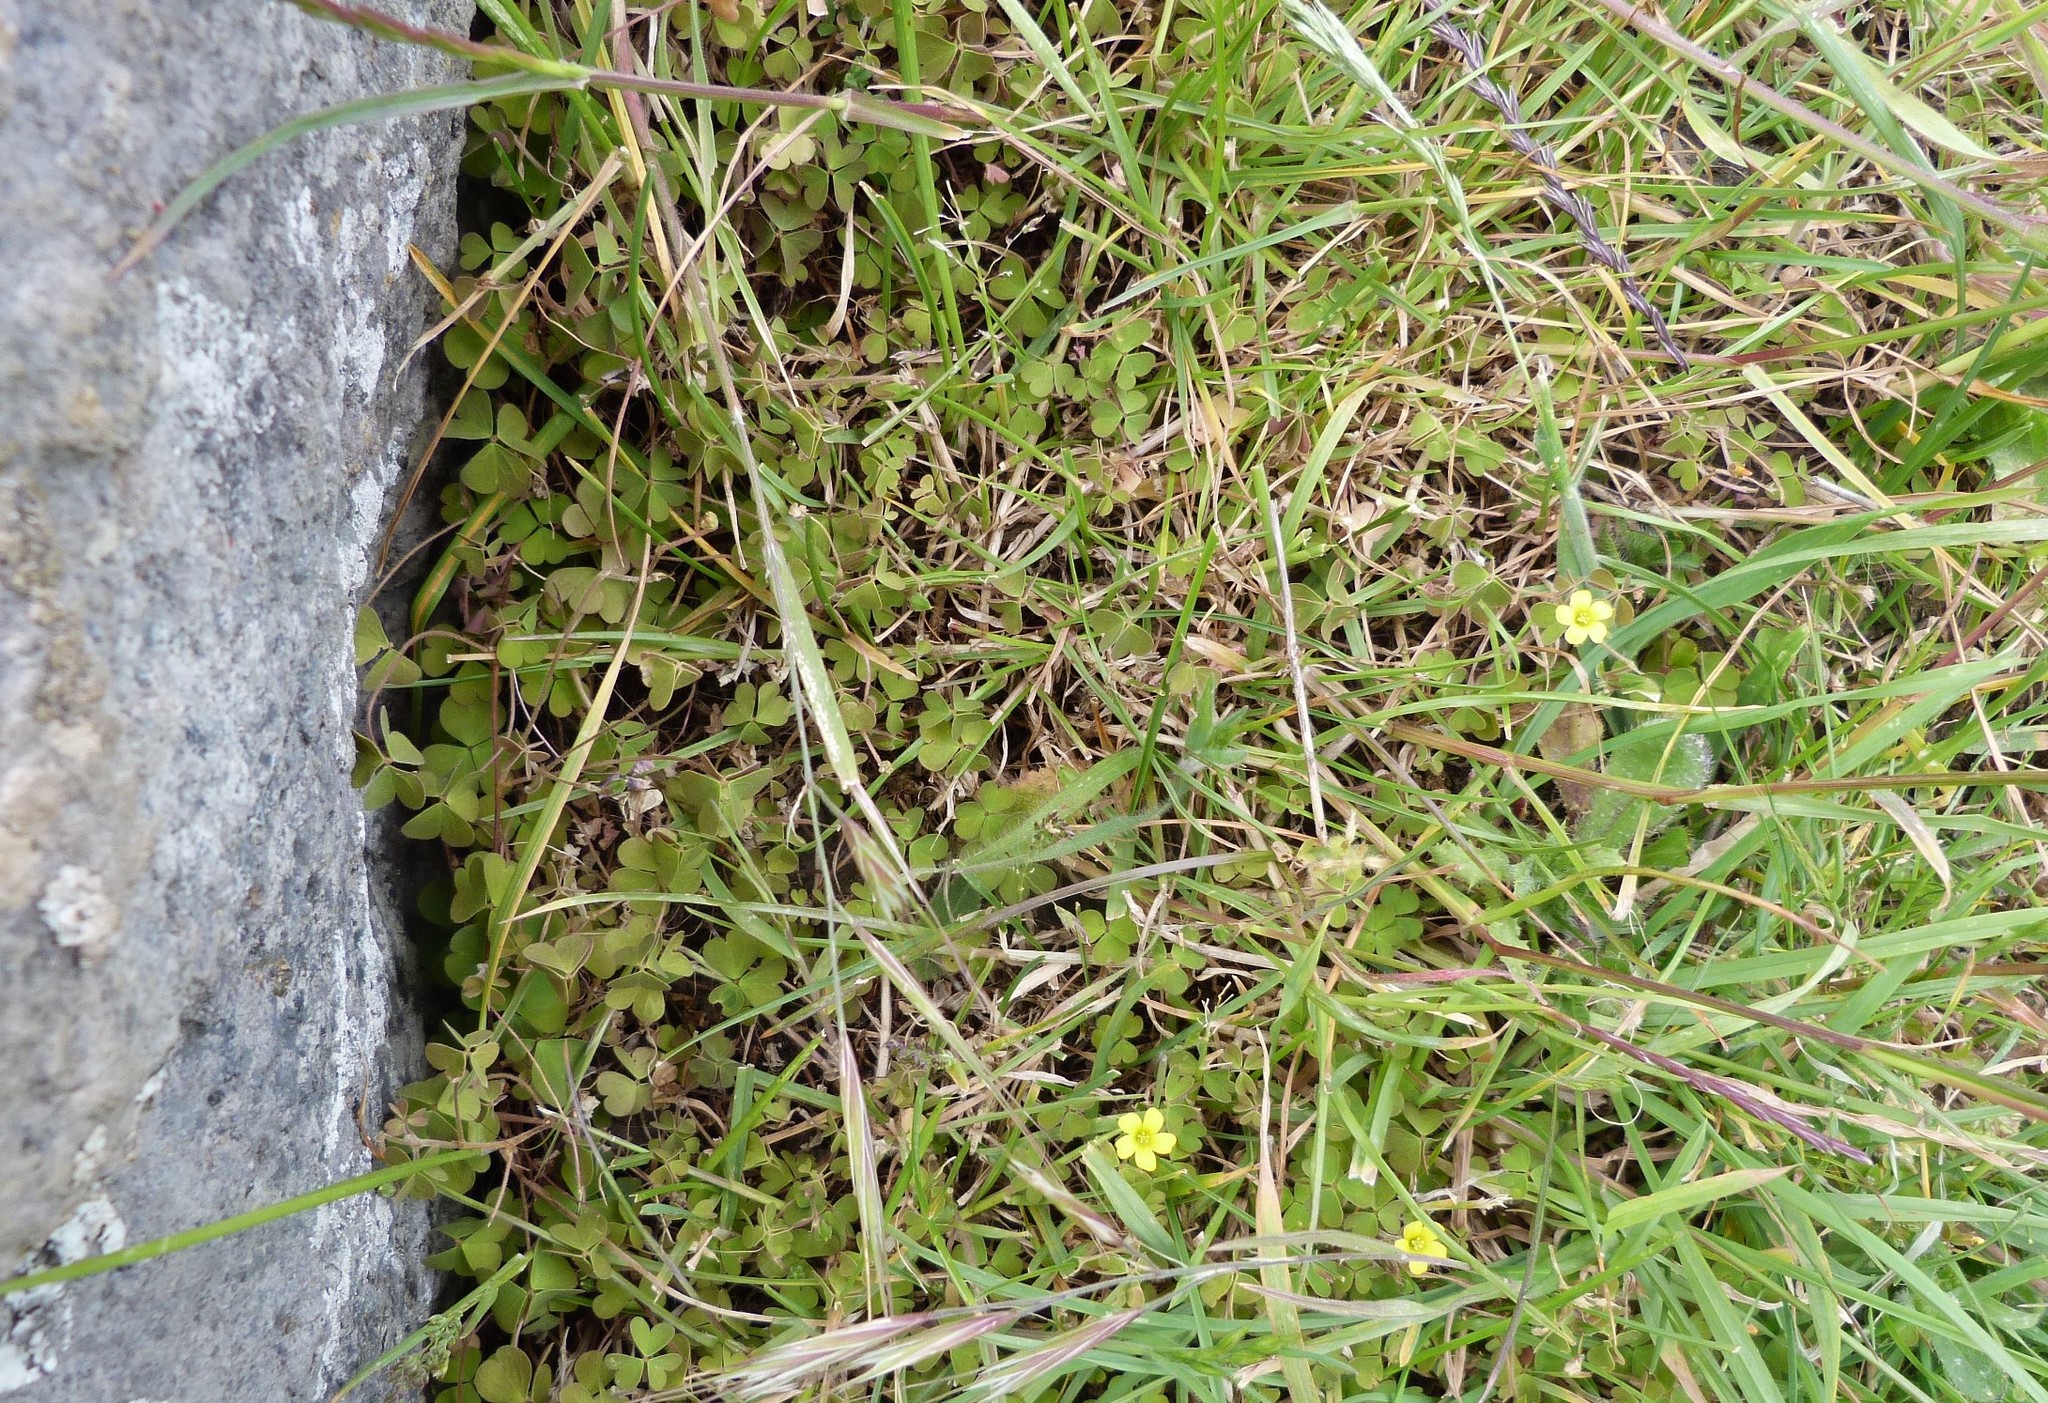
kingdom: Plantae
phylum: Tracheophyta
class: Magnoliopsida
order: Oxalidales
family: Oxalidaceae
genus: Oxalis
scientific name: Oxalis exilis
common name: Least yellow-sorrel
